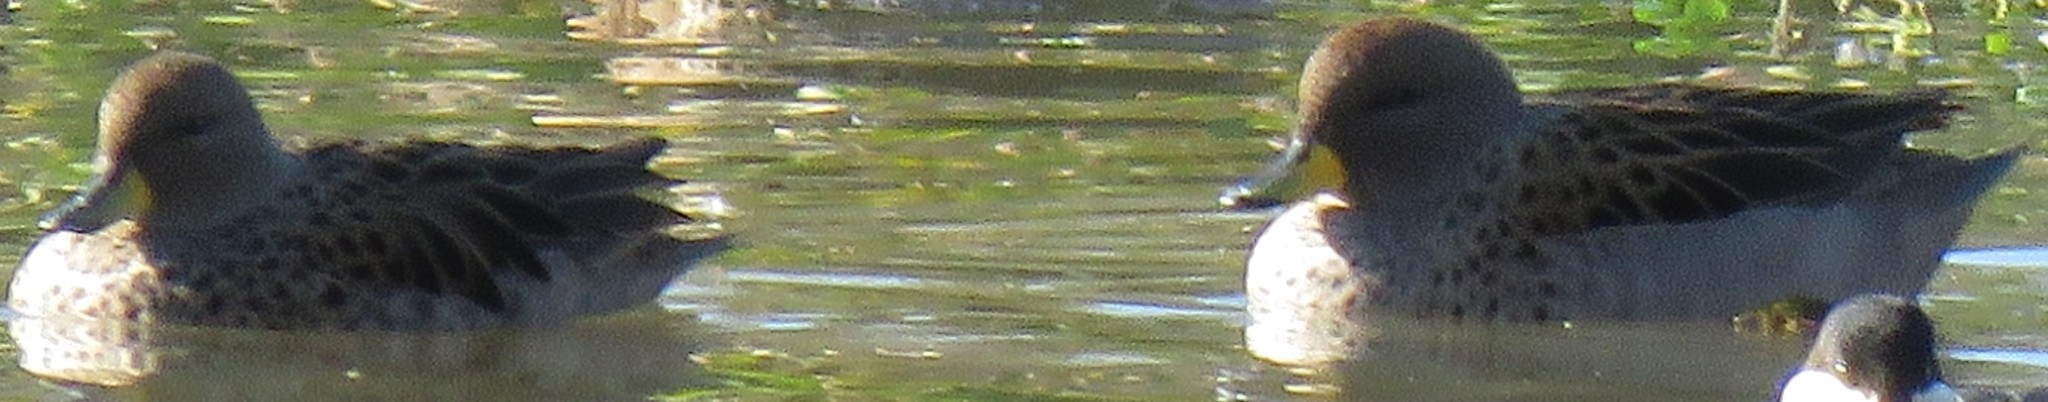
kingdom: Animalia
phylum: Chordata
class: Aves
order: Anseriformes
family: Anatidae
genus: Anas
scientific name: Anas flavirostris
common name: Yellow-billed teal
